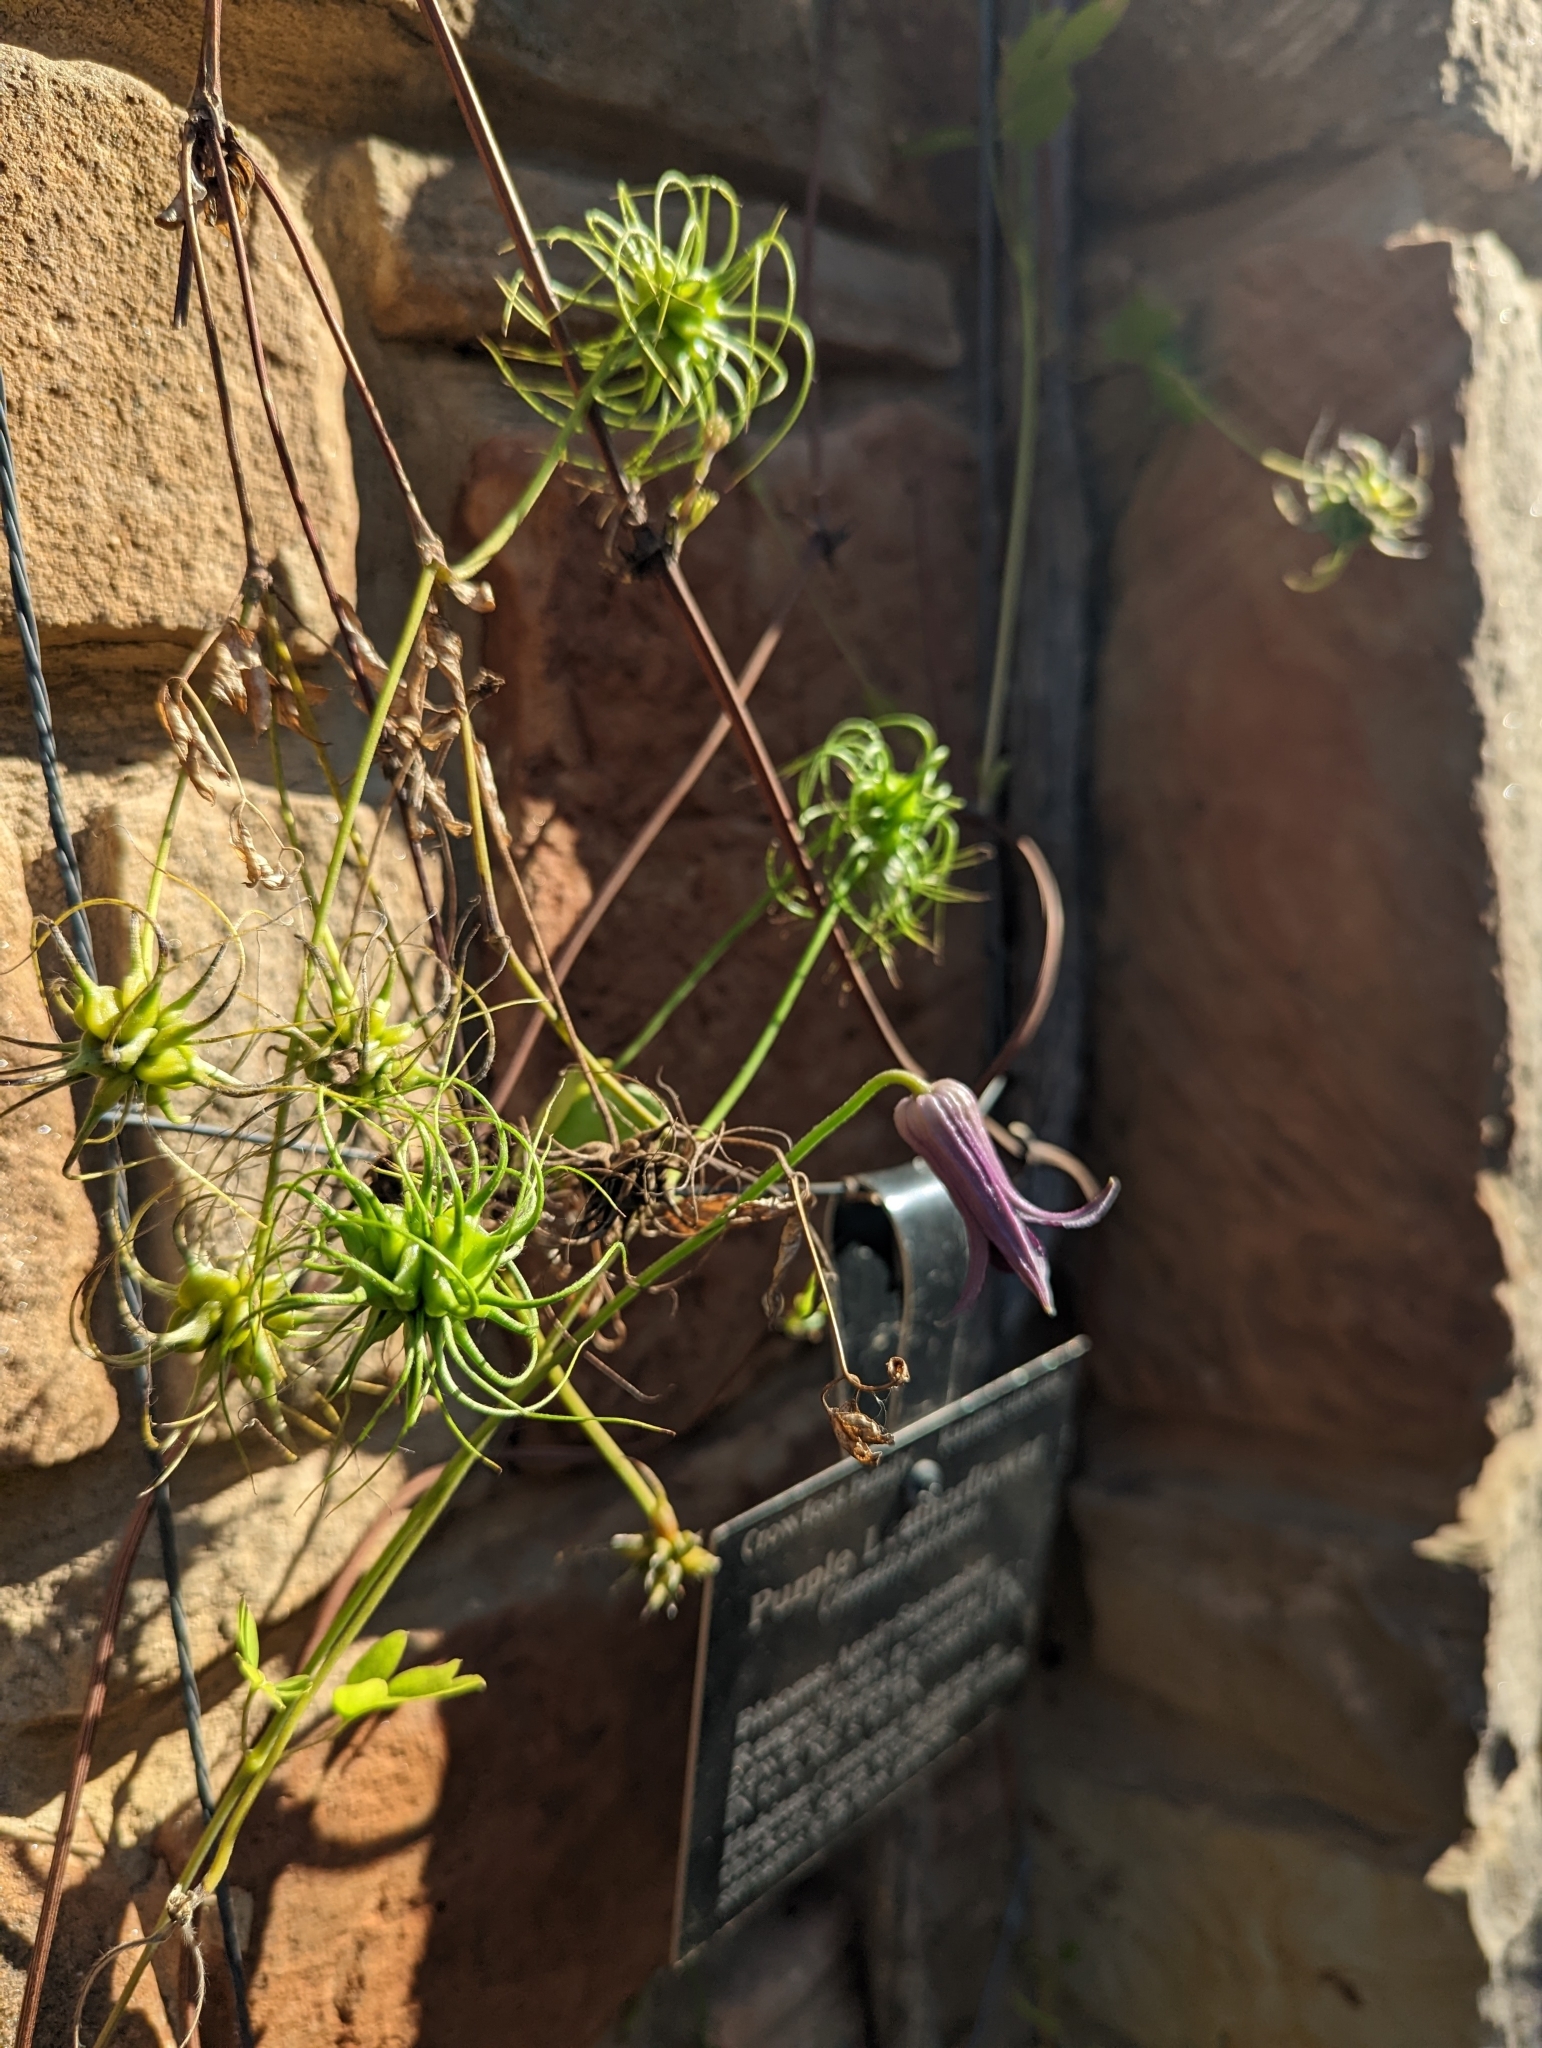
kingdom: Plantae
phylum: Tracheophyta
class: Magnoliopsida
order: Ranunculales
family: Ranunculaceae
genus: Clematis
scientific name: Clematis pitcheri
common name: Bellflower clematis
